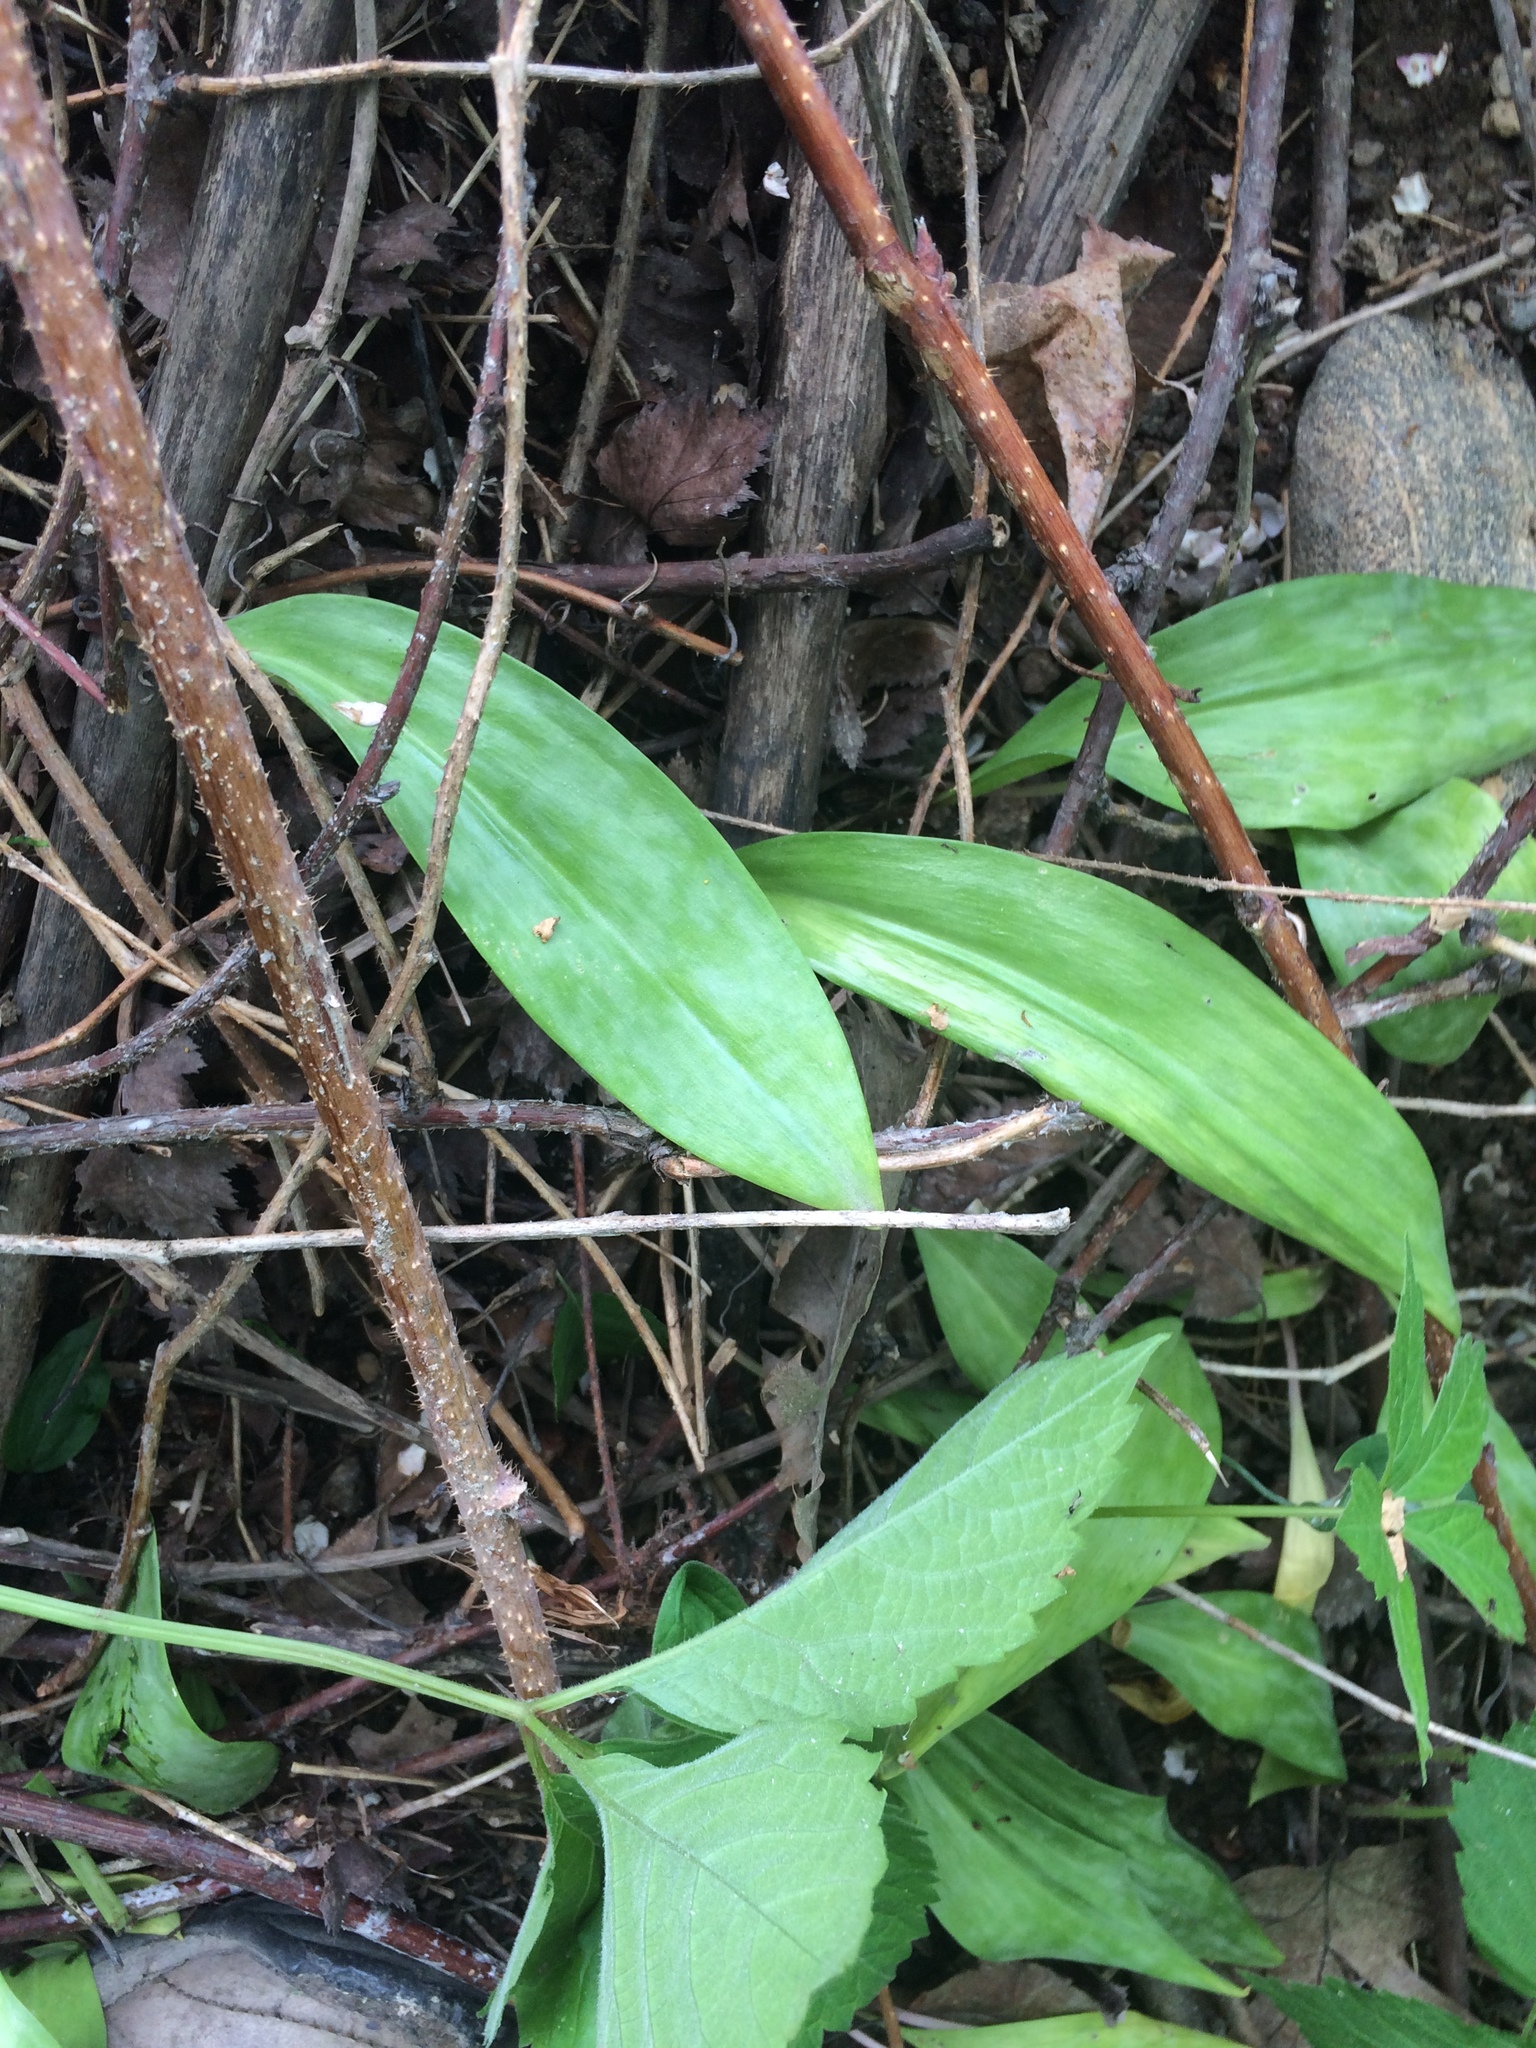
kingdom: Plantae
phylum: Tracheophyta
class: Liliopsida
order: Liliales
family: Liliaceae
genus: Erythronium
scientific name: Erythronium americanum
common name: Yellow adder's-tongue
